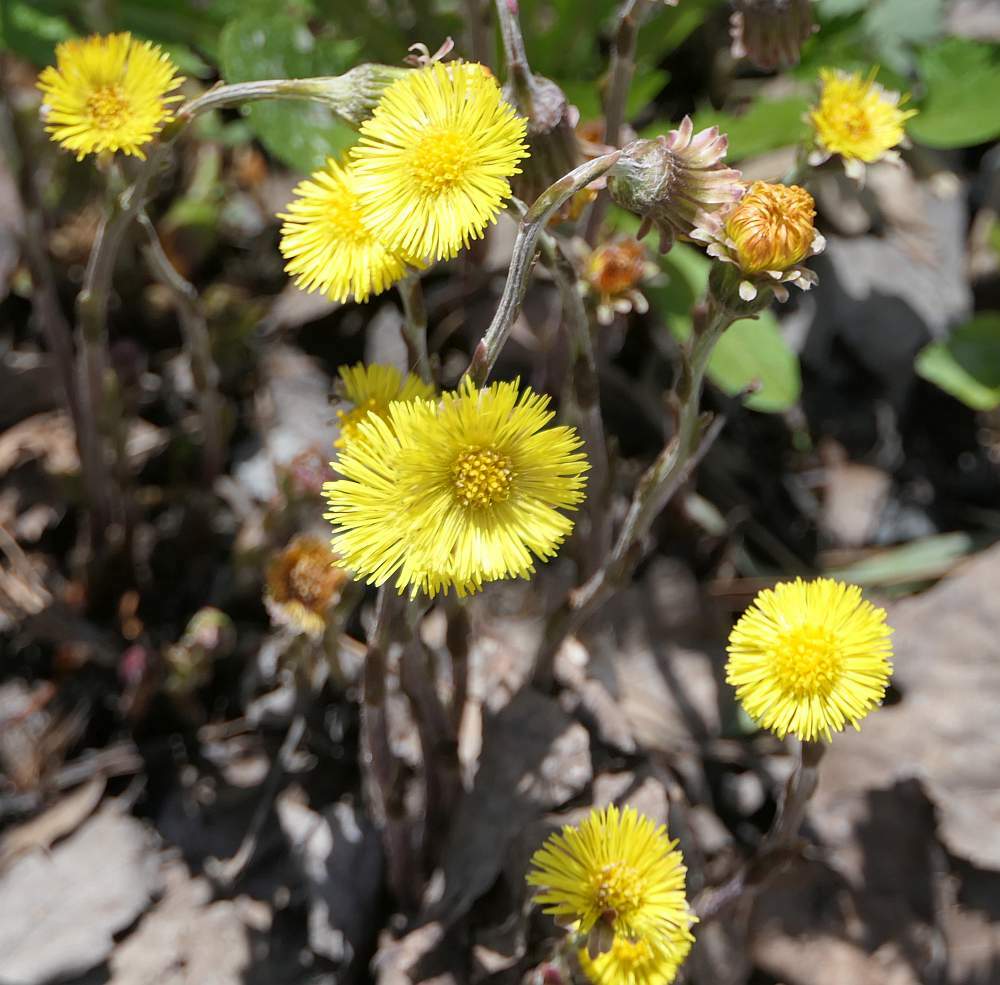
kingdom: Plantae
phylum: Tracheophyta
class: Magnoliopsida
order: Asterales
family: Asteraceae
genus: Tussilago
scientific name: Tussilago farfara
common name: Coltsfoot
